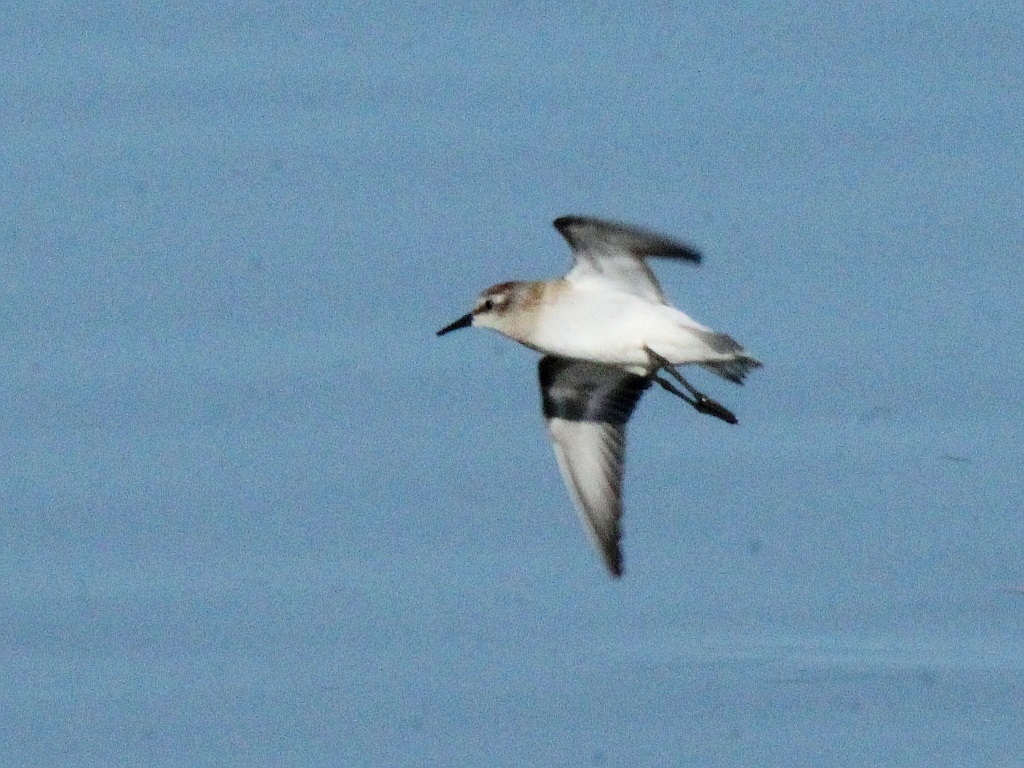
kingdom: Animalia
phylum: Chordata
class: Aves
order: Charadriiformes
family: Scolopacidae
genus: Calidris
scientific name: Calidris minuta
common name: Little stint
